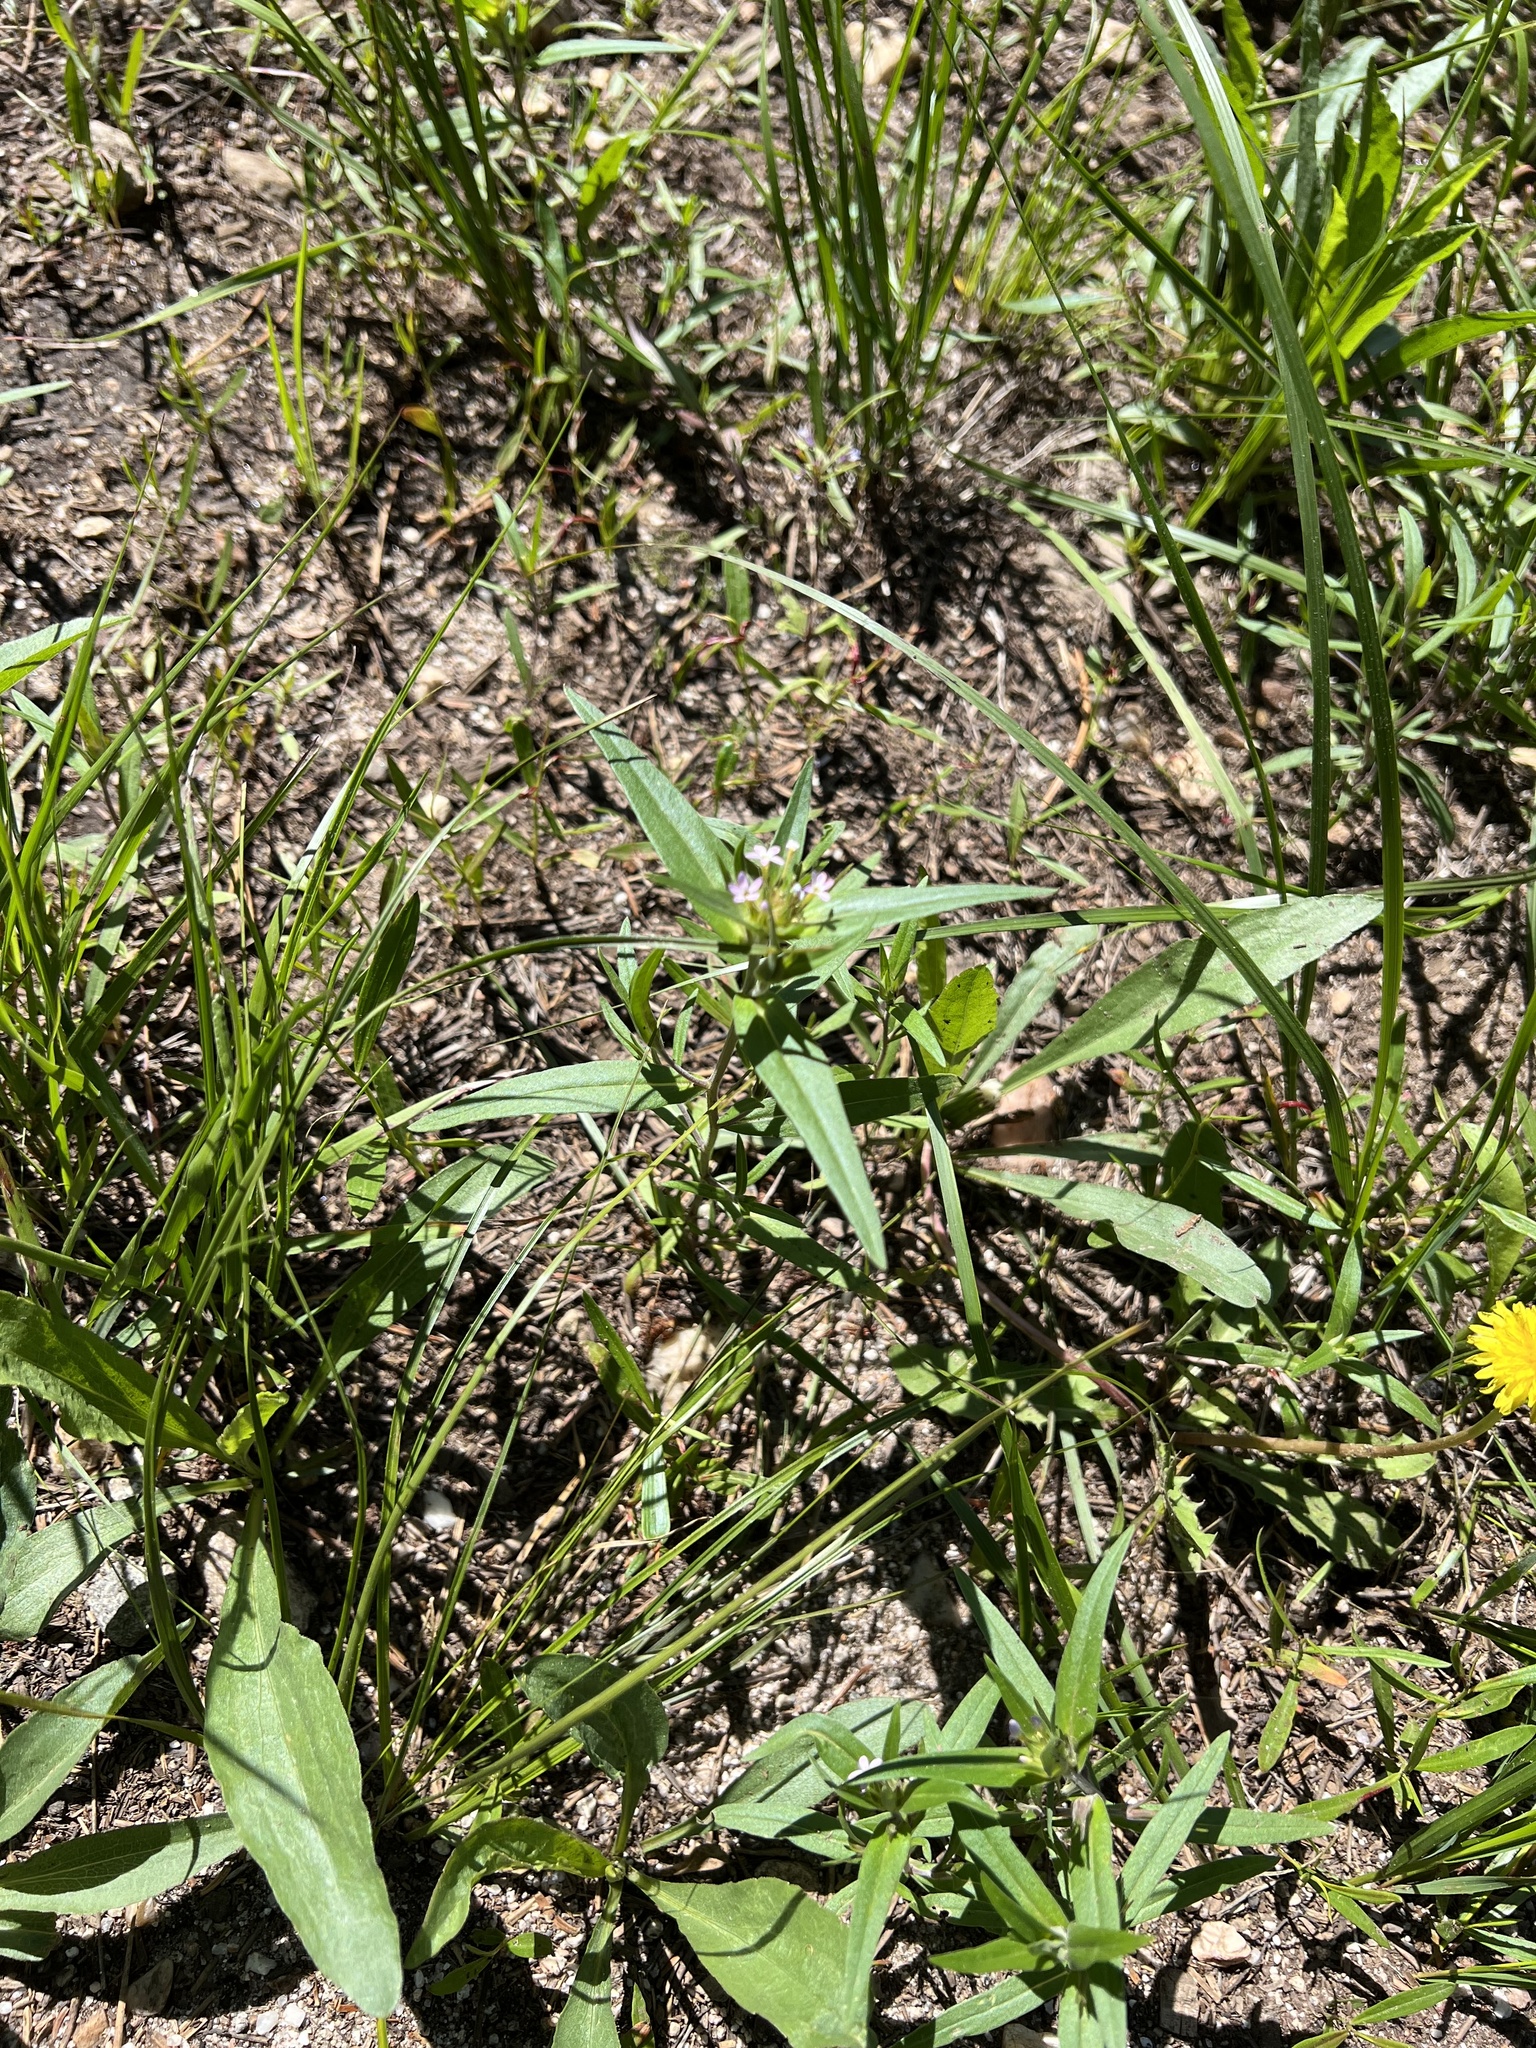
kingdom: Plantae
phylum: Tracheophyta
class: Magnoliopsida
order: Ericales
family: Polemoniaceae
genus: Collomia
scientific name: Collomia linearis
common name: Tiny trumpet
